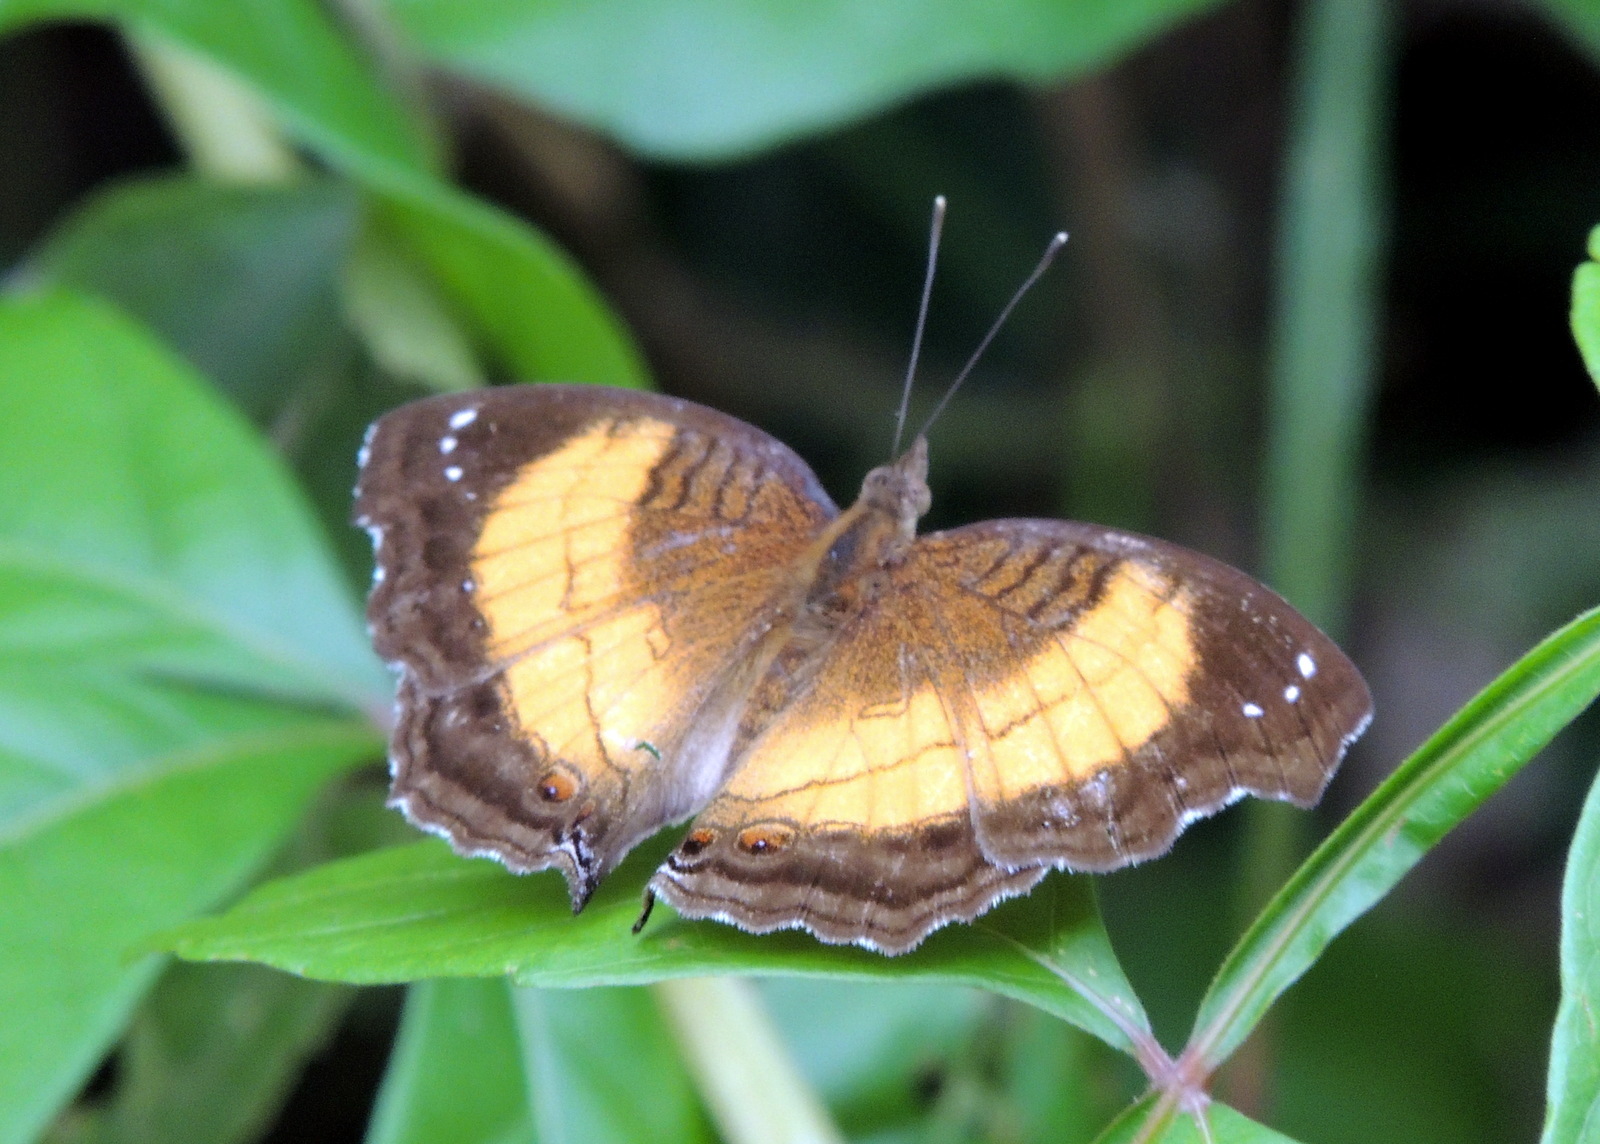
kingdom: Animalia
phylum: Arthropoda
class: Insecta
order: Lepidoptera
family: Nymphalidae
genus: Junonia
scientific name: Junonia terea
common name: Soldier pansy
